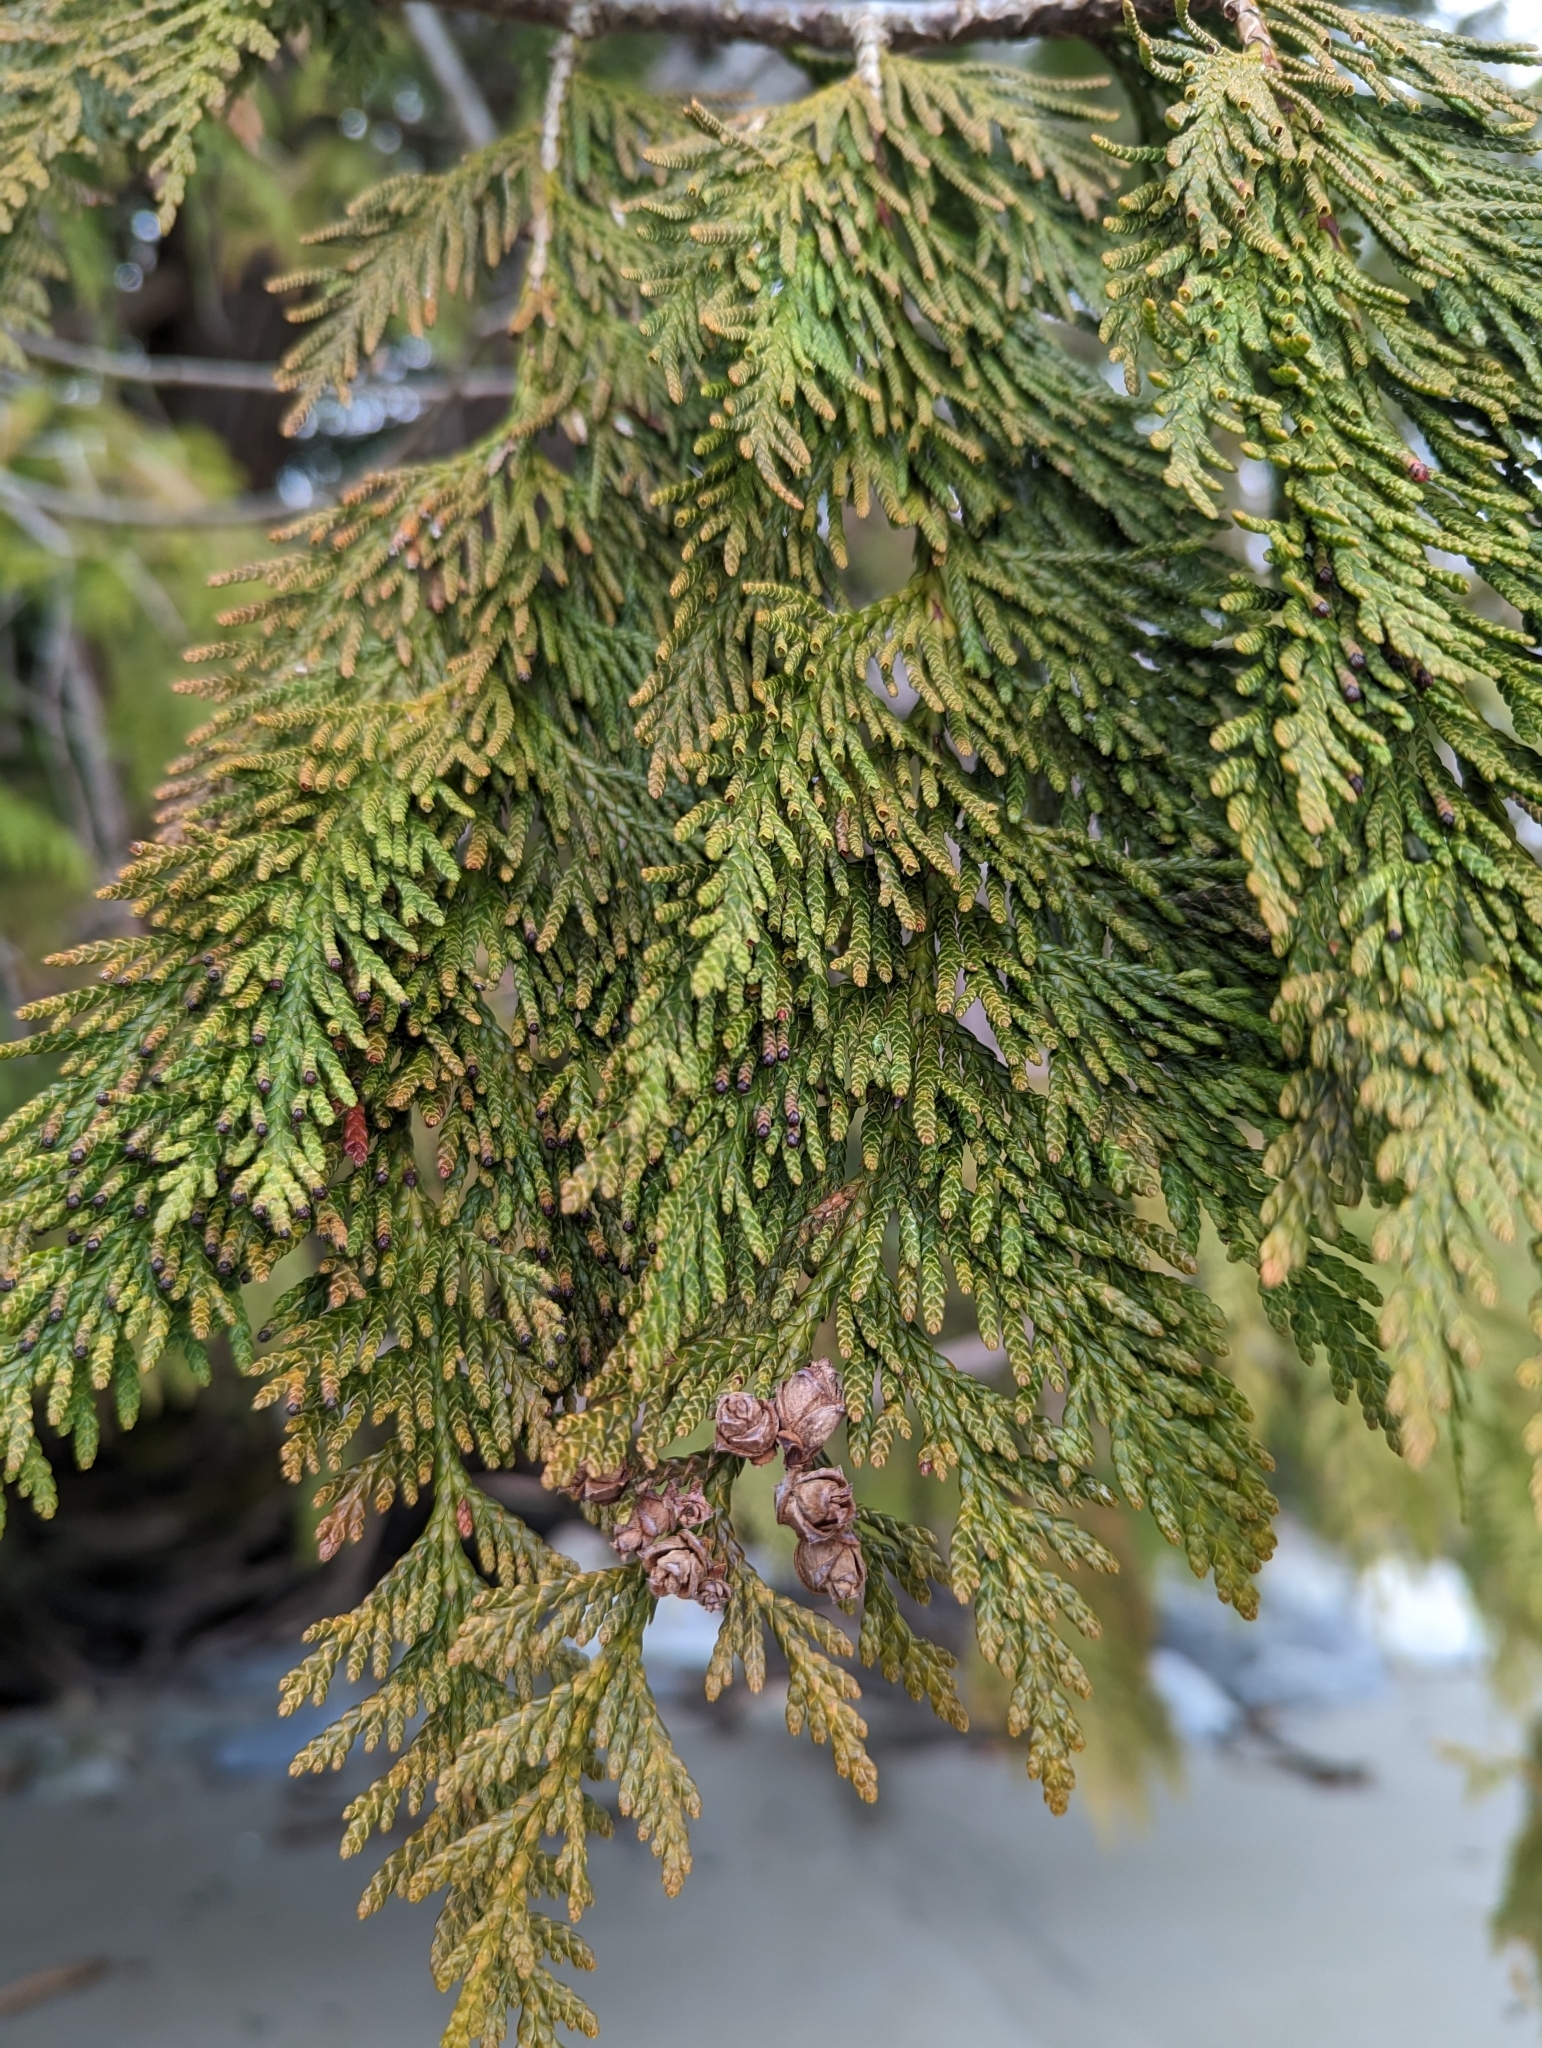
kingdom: Plantae
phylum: Tracheophyta
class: Pinopsida
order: Pinales
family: Cupressaceae
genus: Thuja
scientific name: Thuja plicata
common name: Western red-cedar
